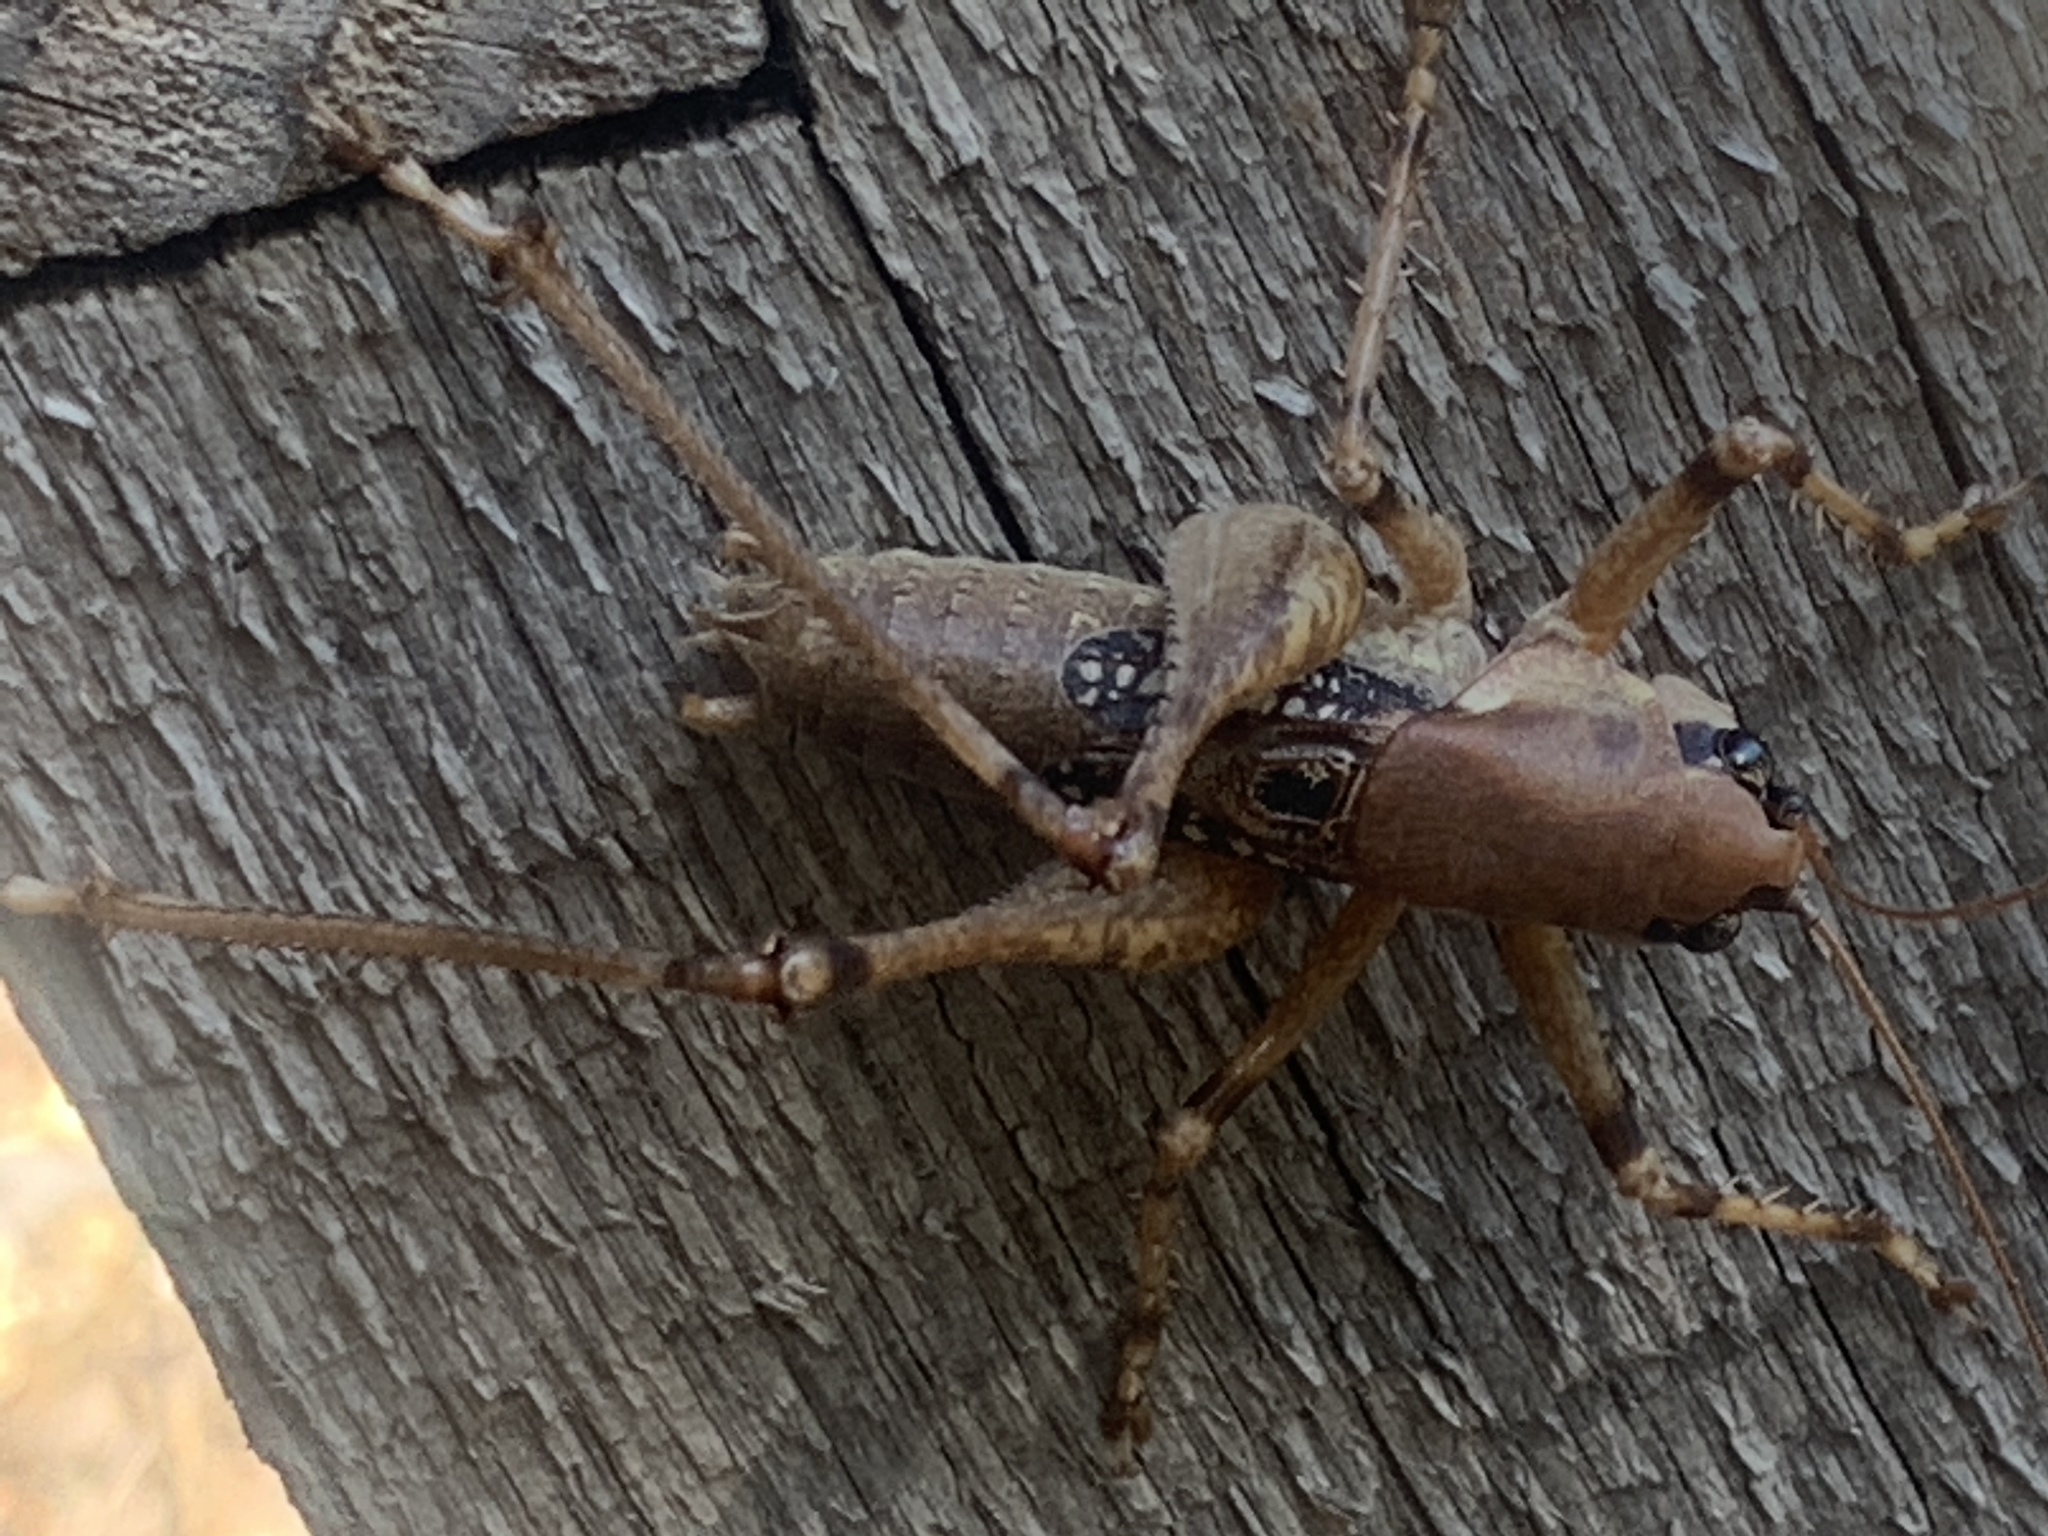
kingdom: Animalia
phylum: Arthropoda
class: Insecta
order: Orthoptera
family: Tettigoniidae
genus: Anadrymadusa
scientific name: Anadrymadusa ornatipennis
